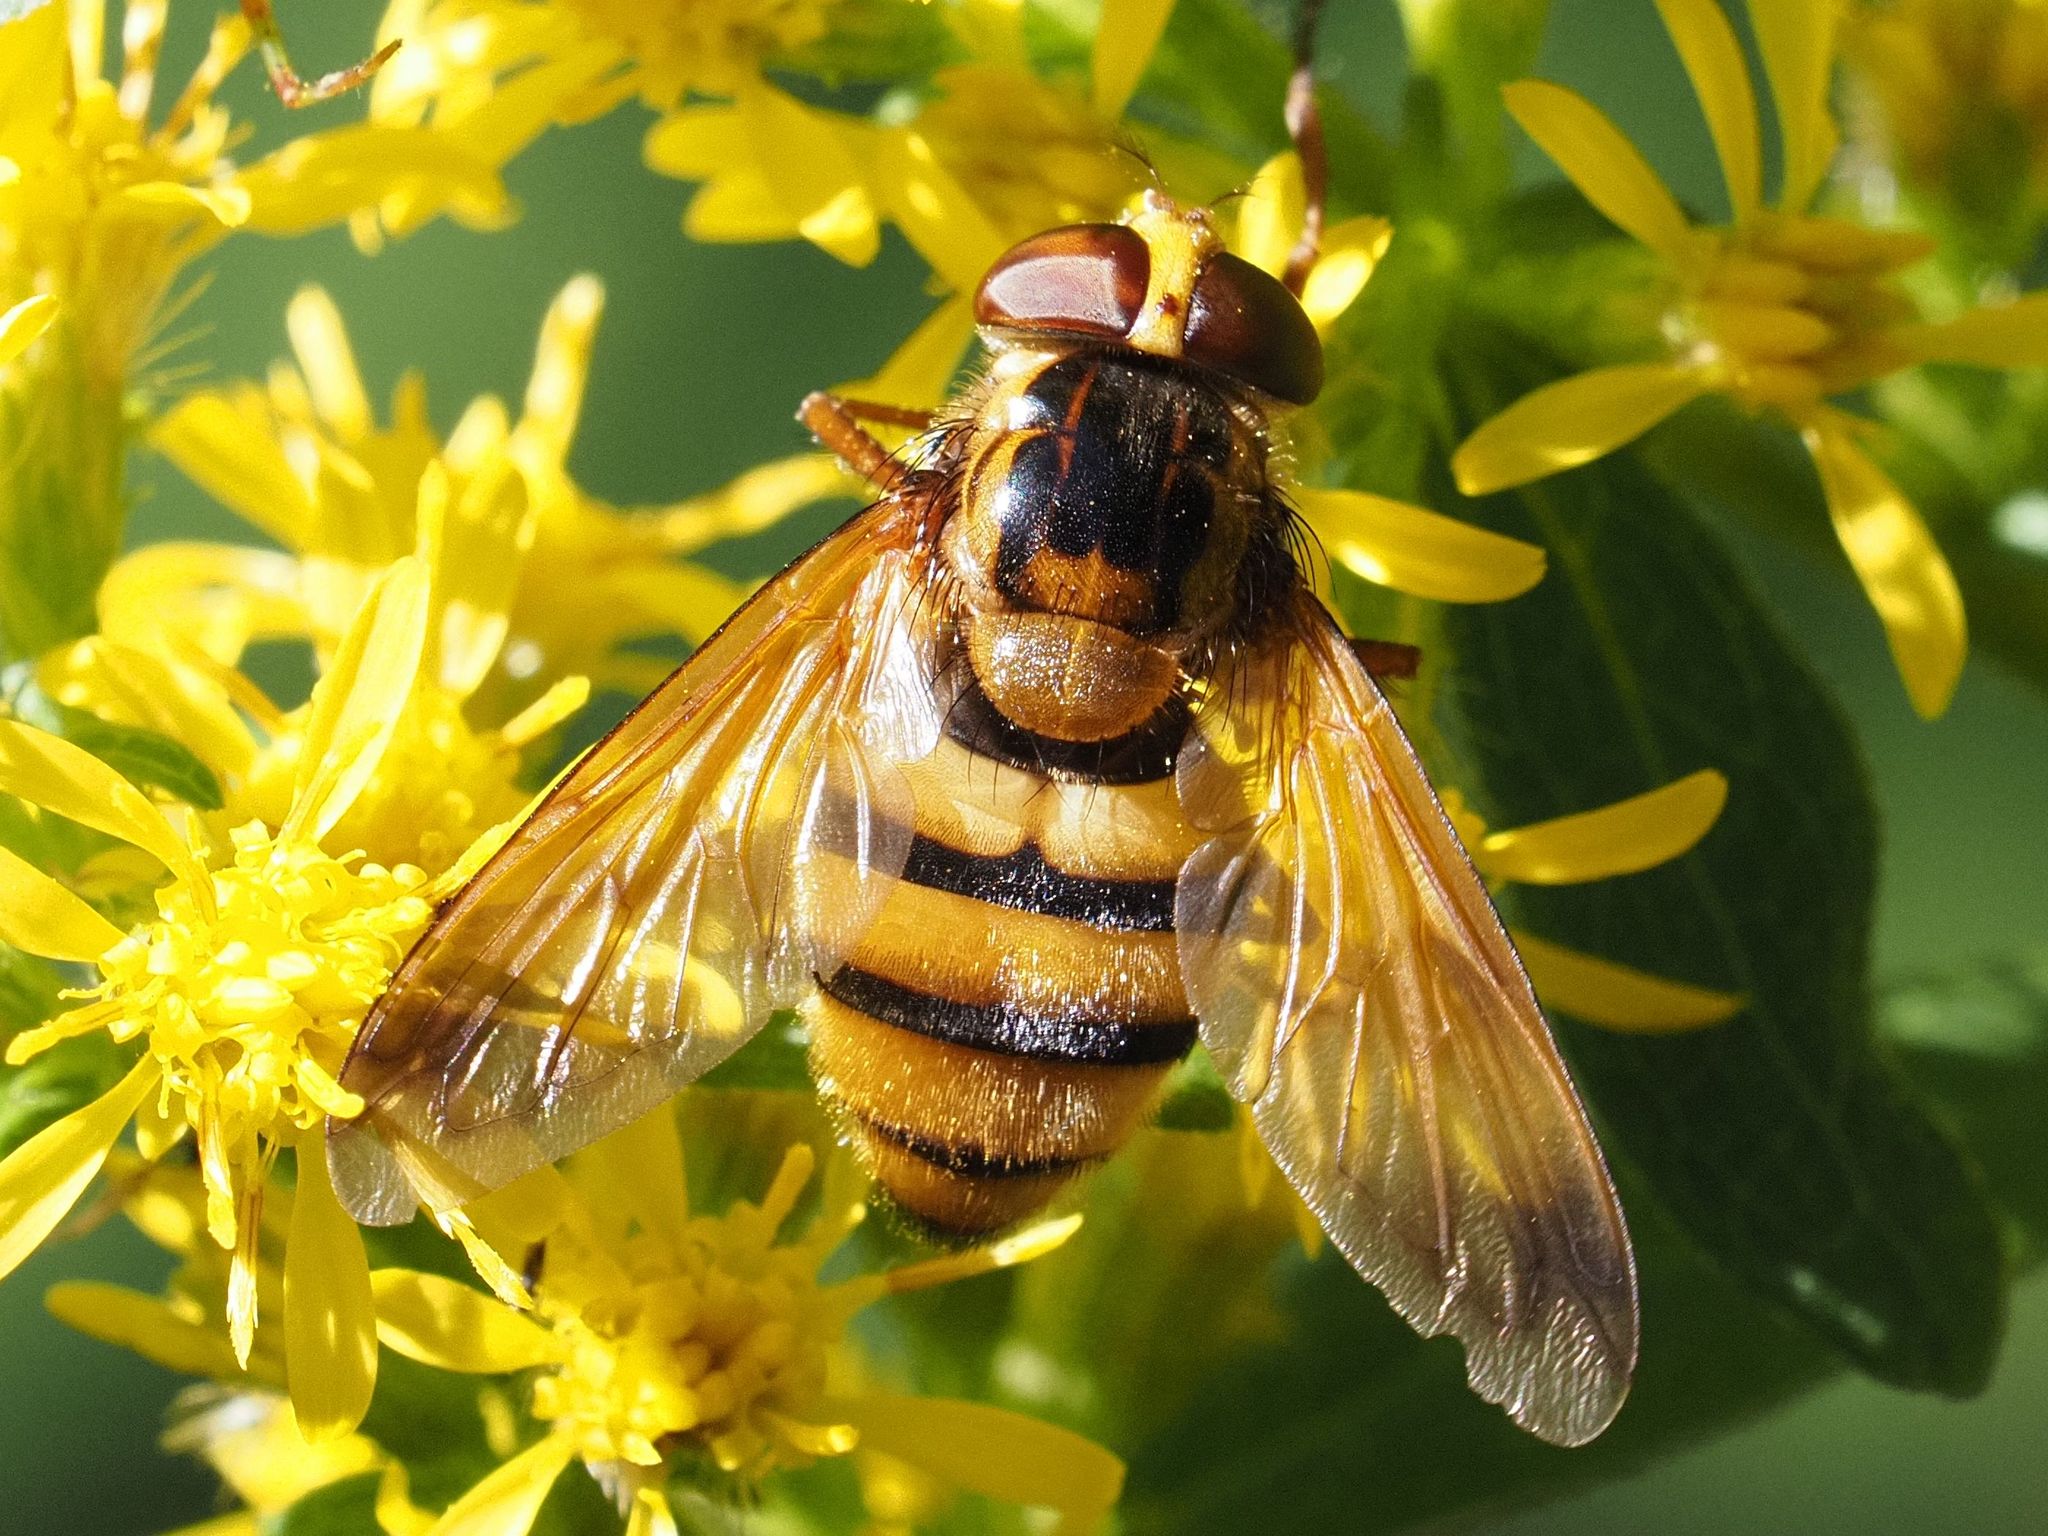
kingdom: Animalia
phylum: Arthropoda
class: Insecta
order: Diptera
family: Syrphidae
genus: Volucella
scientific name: Volucella inanis
